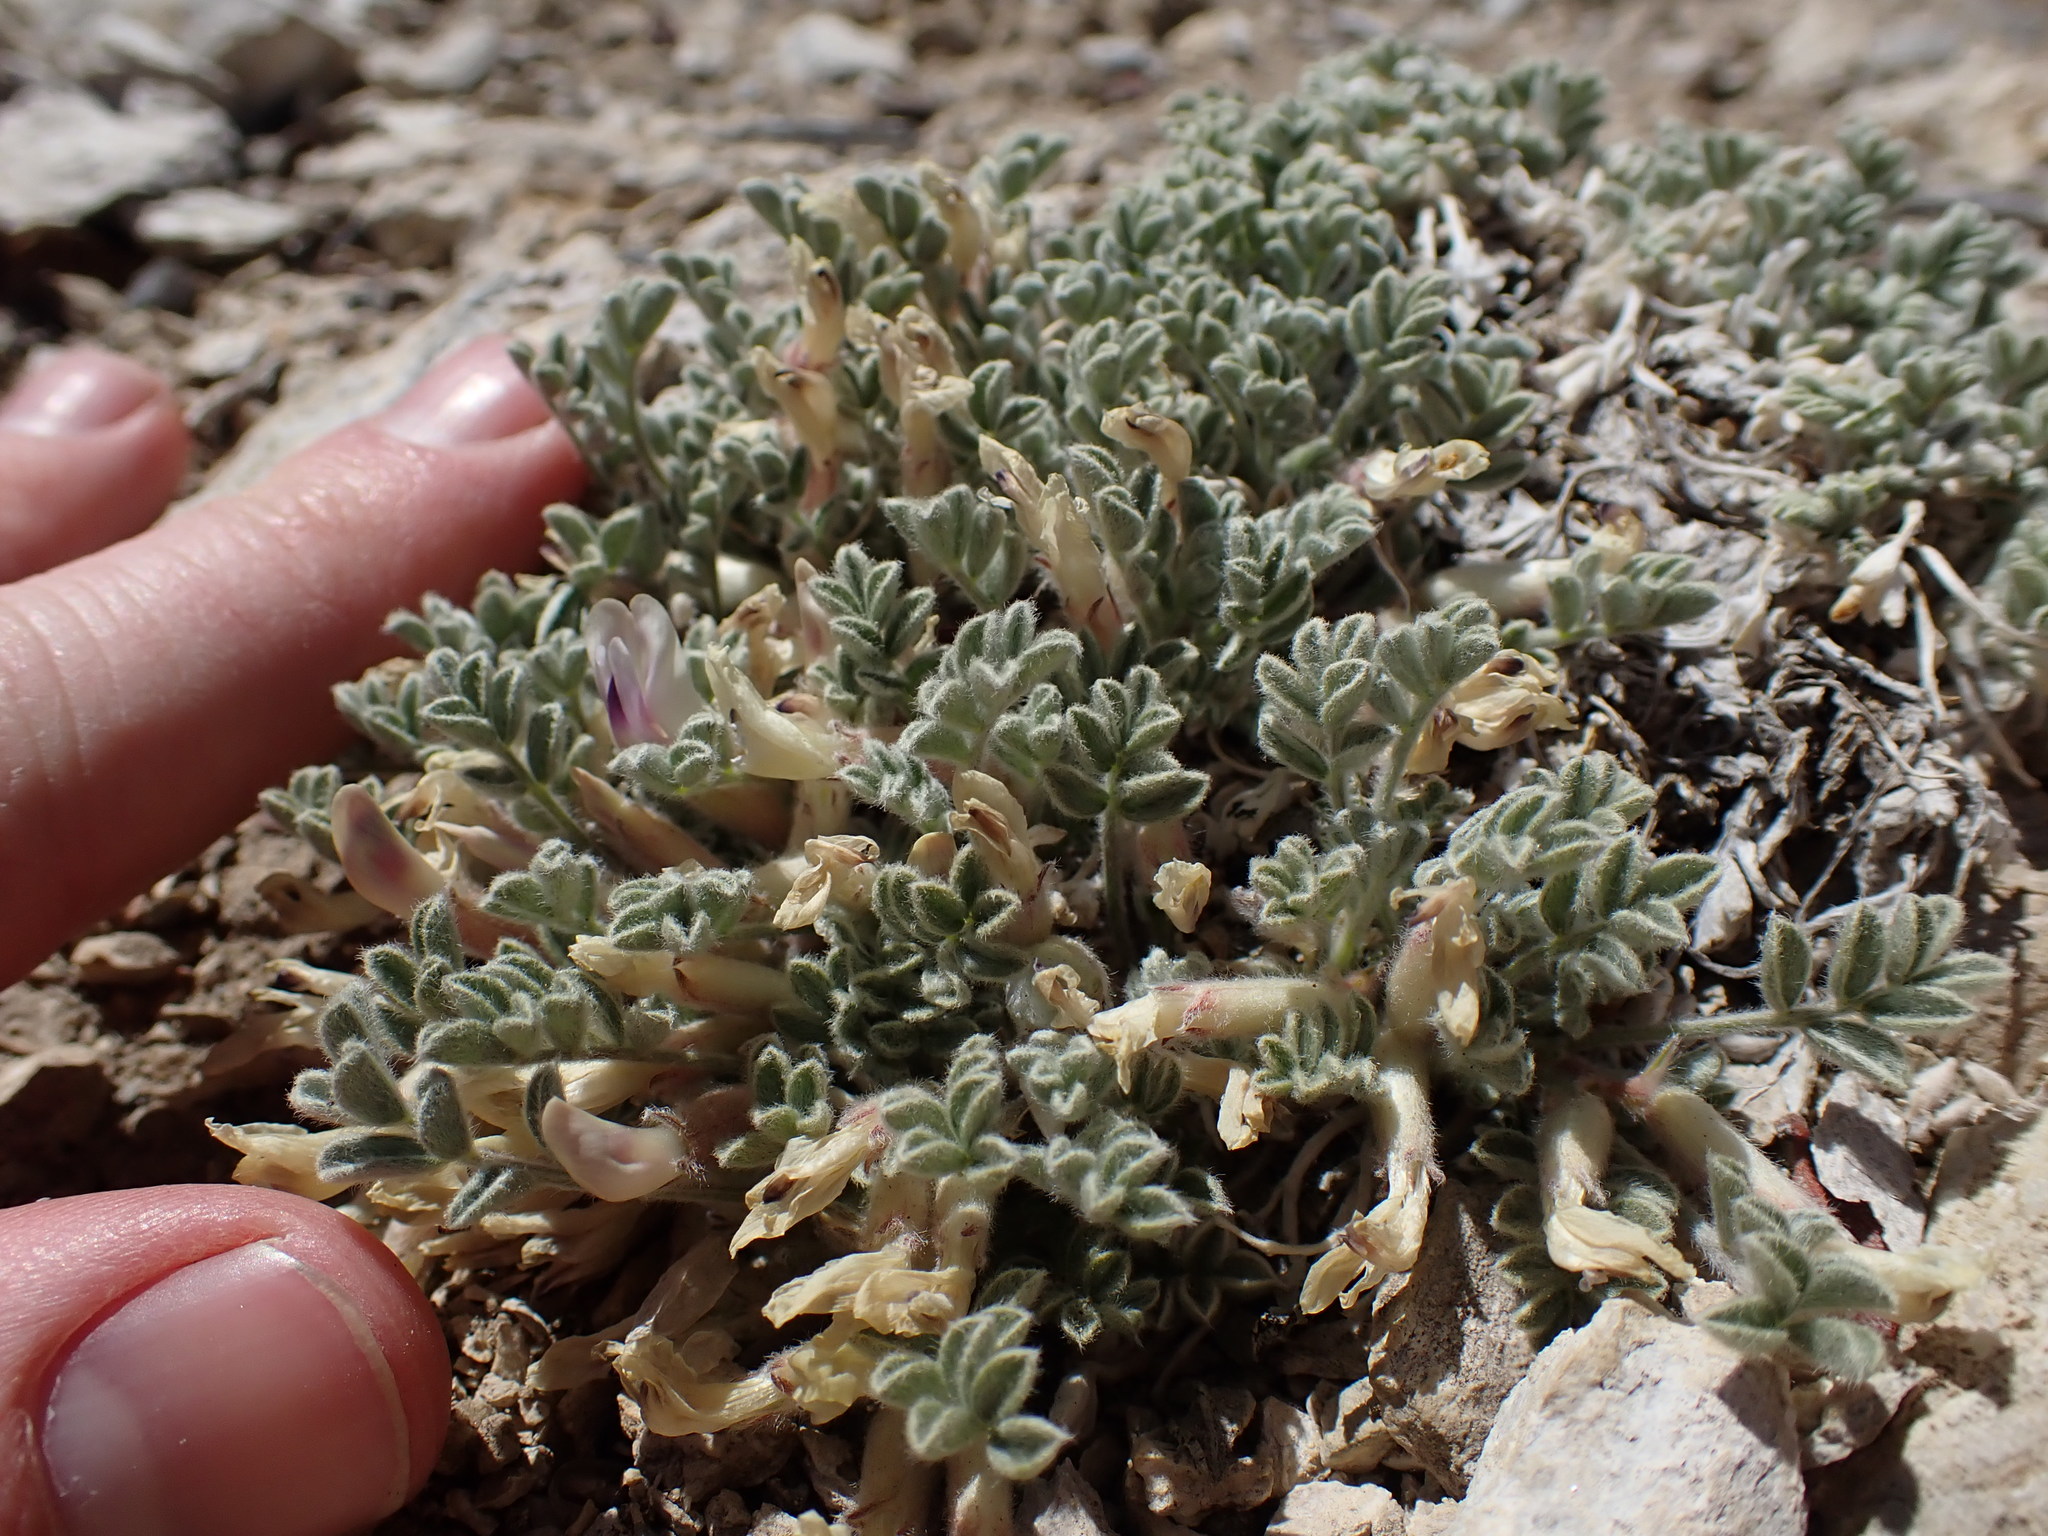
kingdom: Plantae
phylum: Tracheophyta
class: Magnoliopsida
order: Fabales
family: Fabaceae
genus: Astragalus
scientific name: Astragalus purshii
